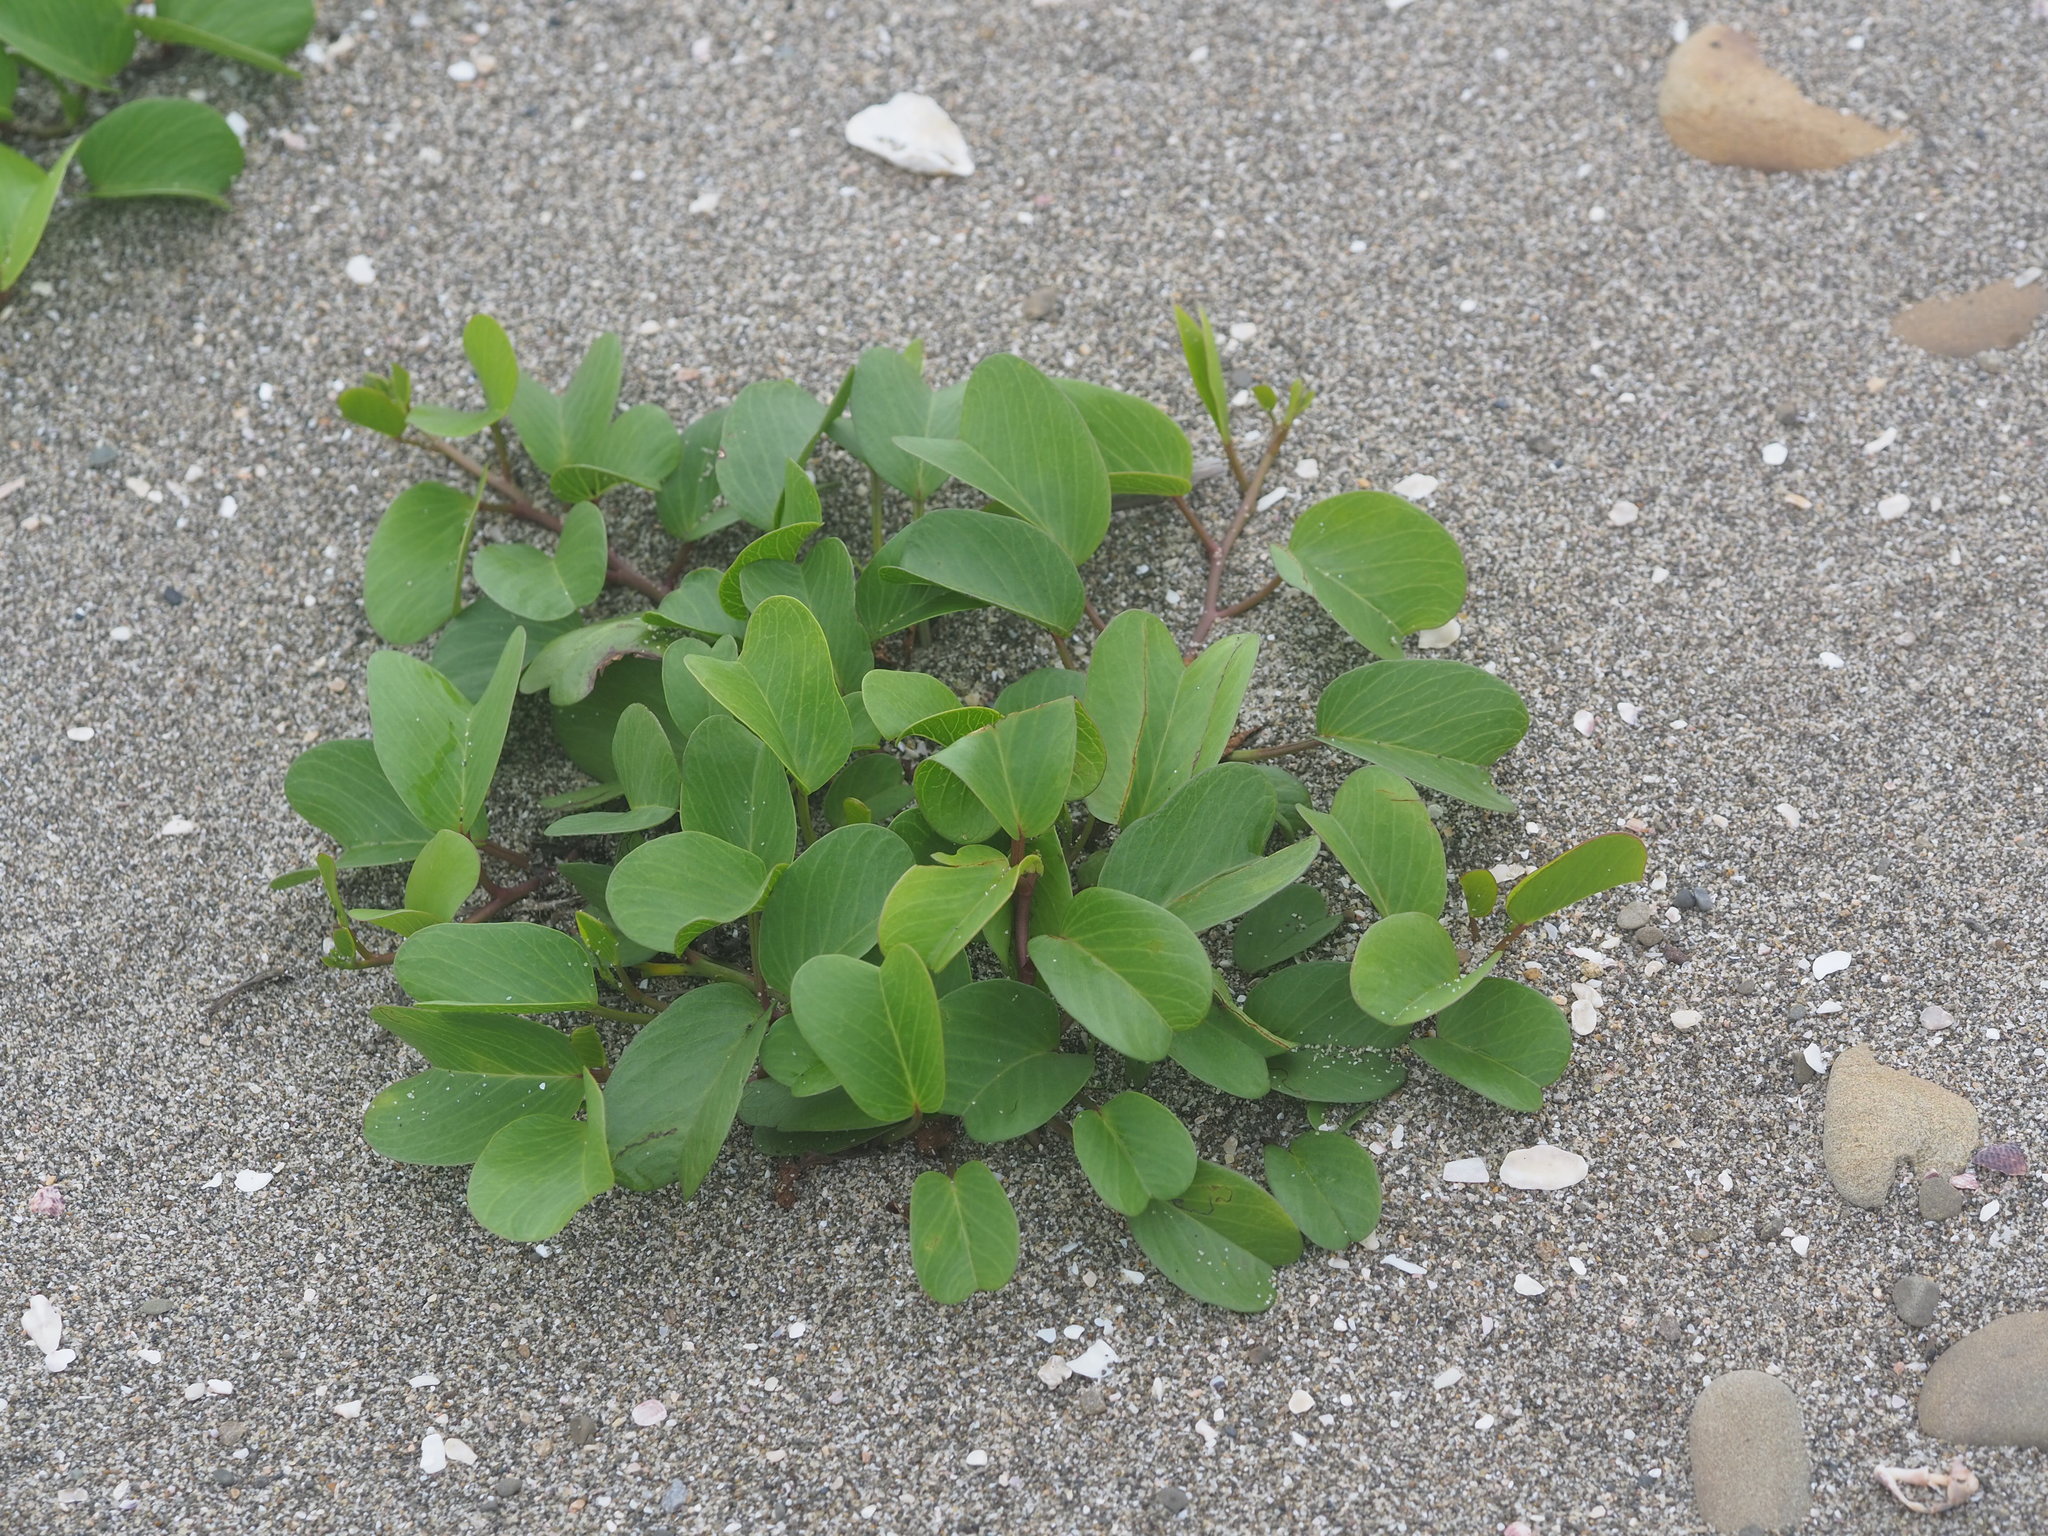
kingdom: Plantae
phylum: Tracheophyta
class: Magnoliopsida
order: Solanales
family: Convolvulaceae
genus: Ipomoea
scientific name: Ipomoea pes-caprae
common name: Beach morning glory
